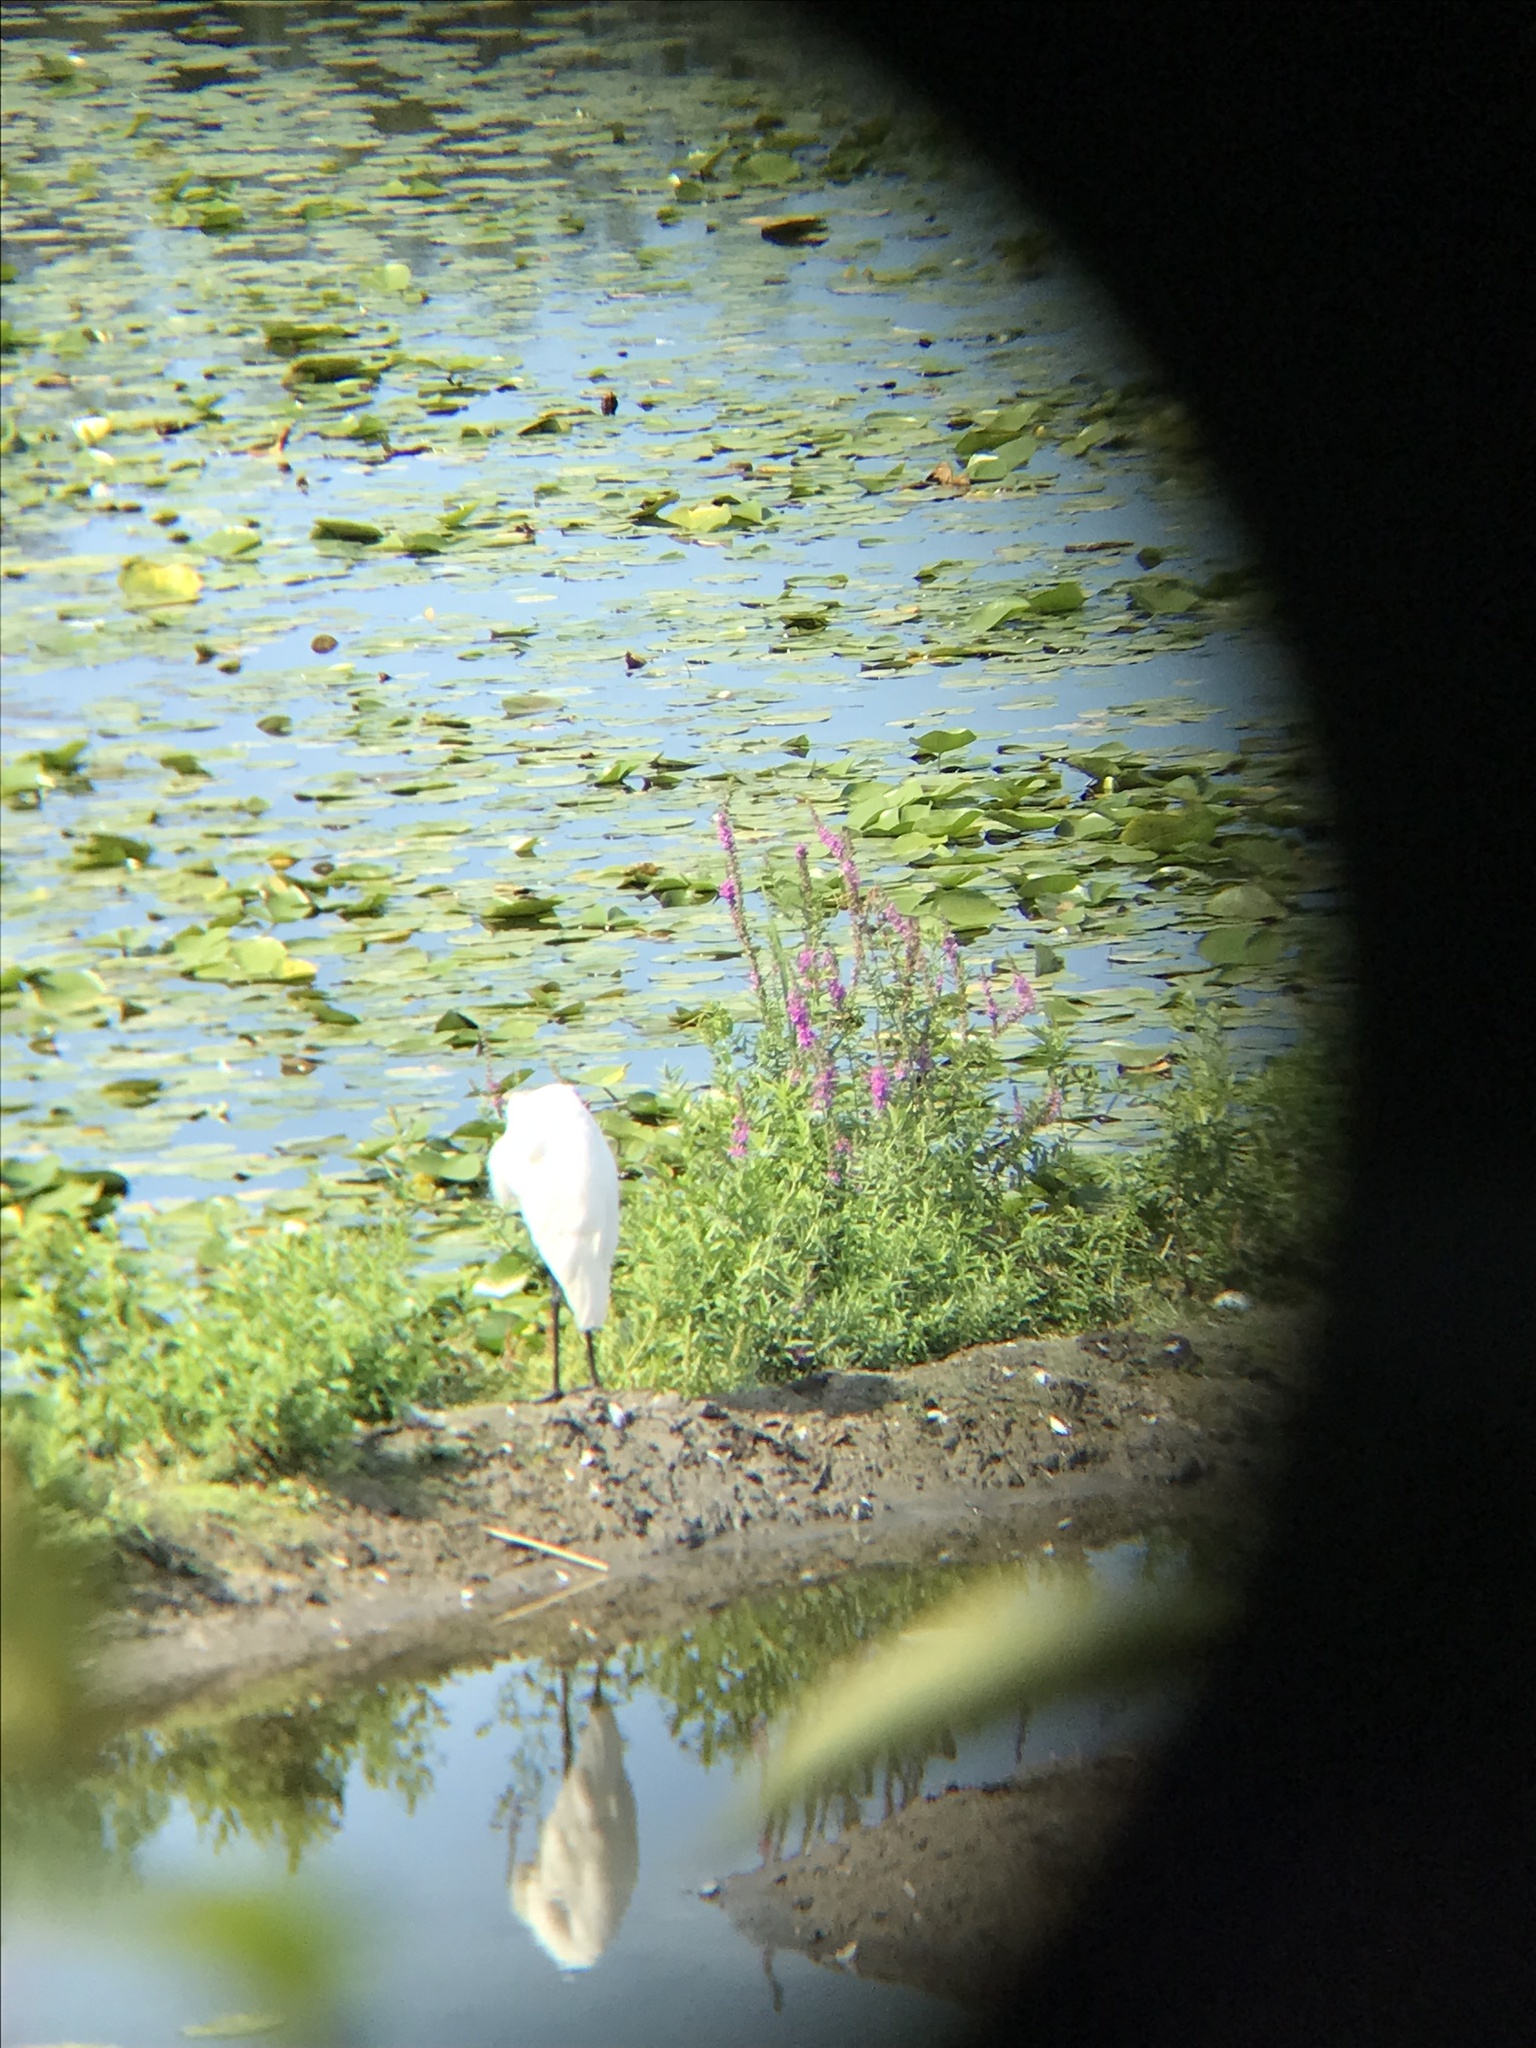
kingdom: Animalia
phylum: Chordata
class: Aves
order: Pelecaniformes
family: Ardeidae
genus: Ardea
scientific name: Ardea alba
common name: Great egret
